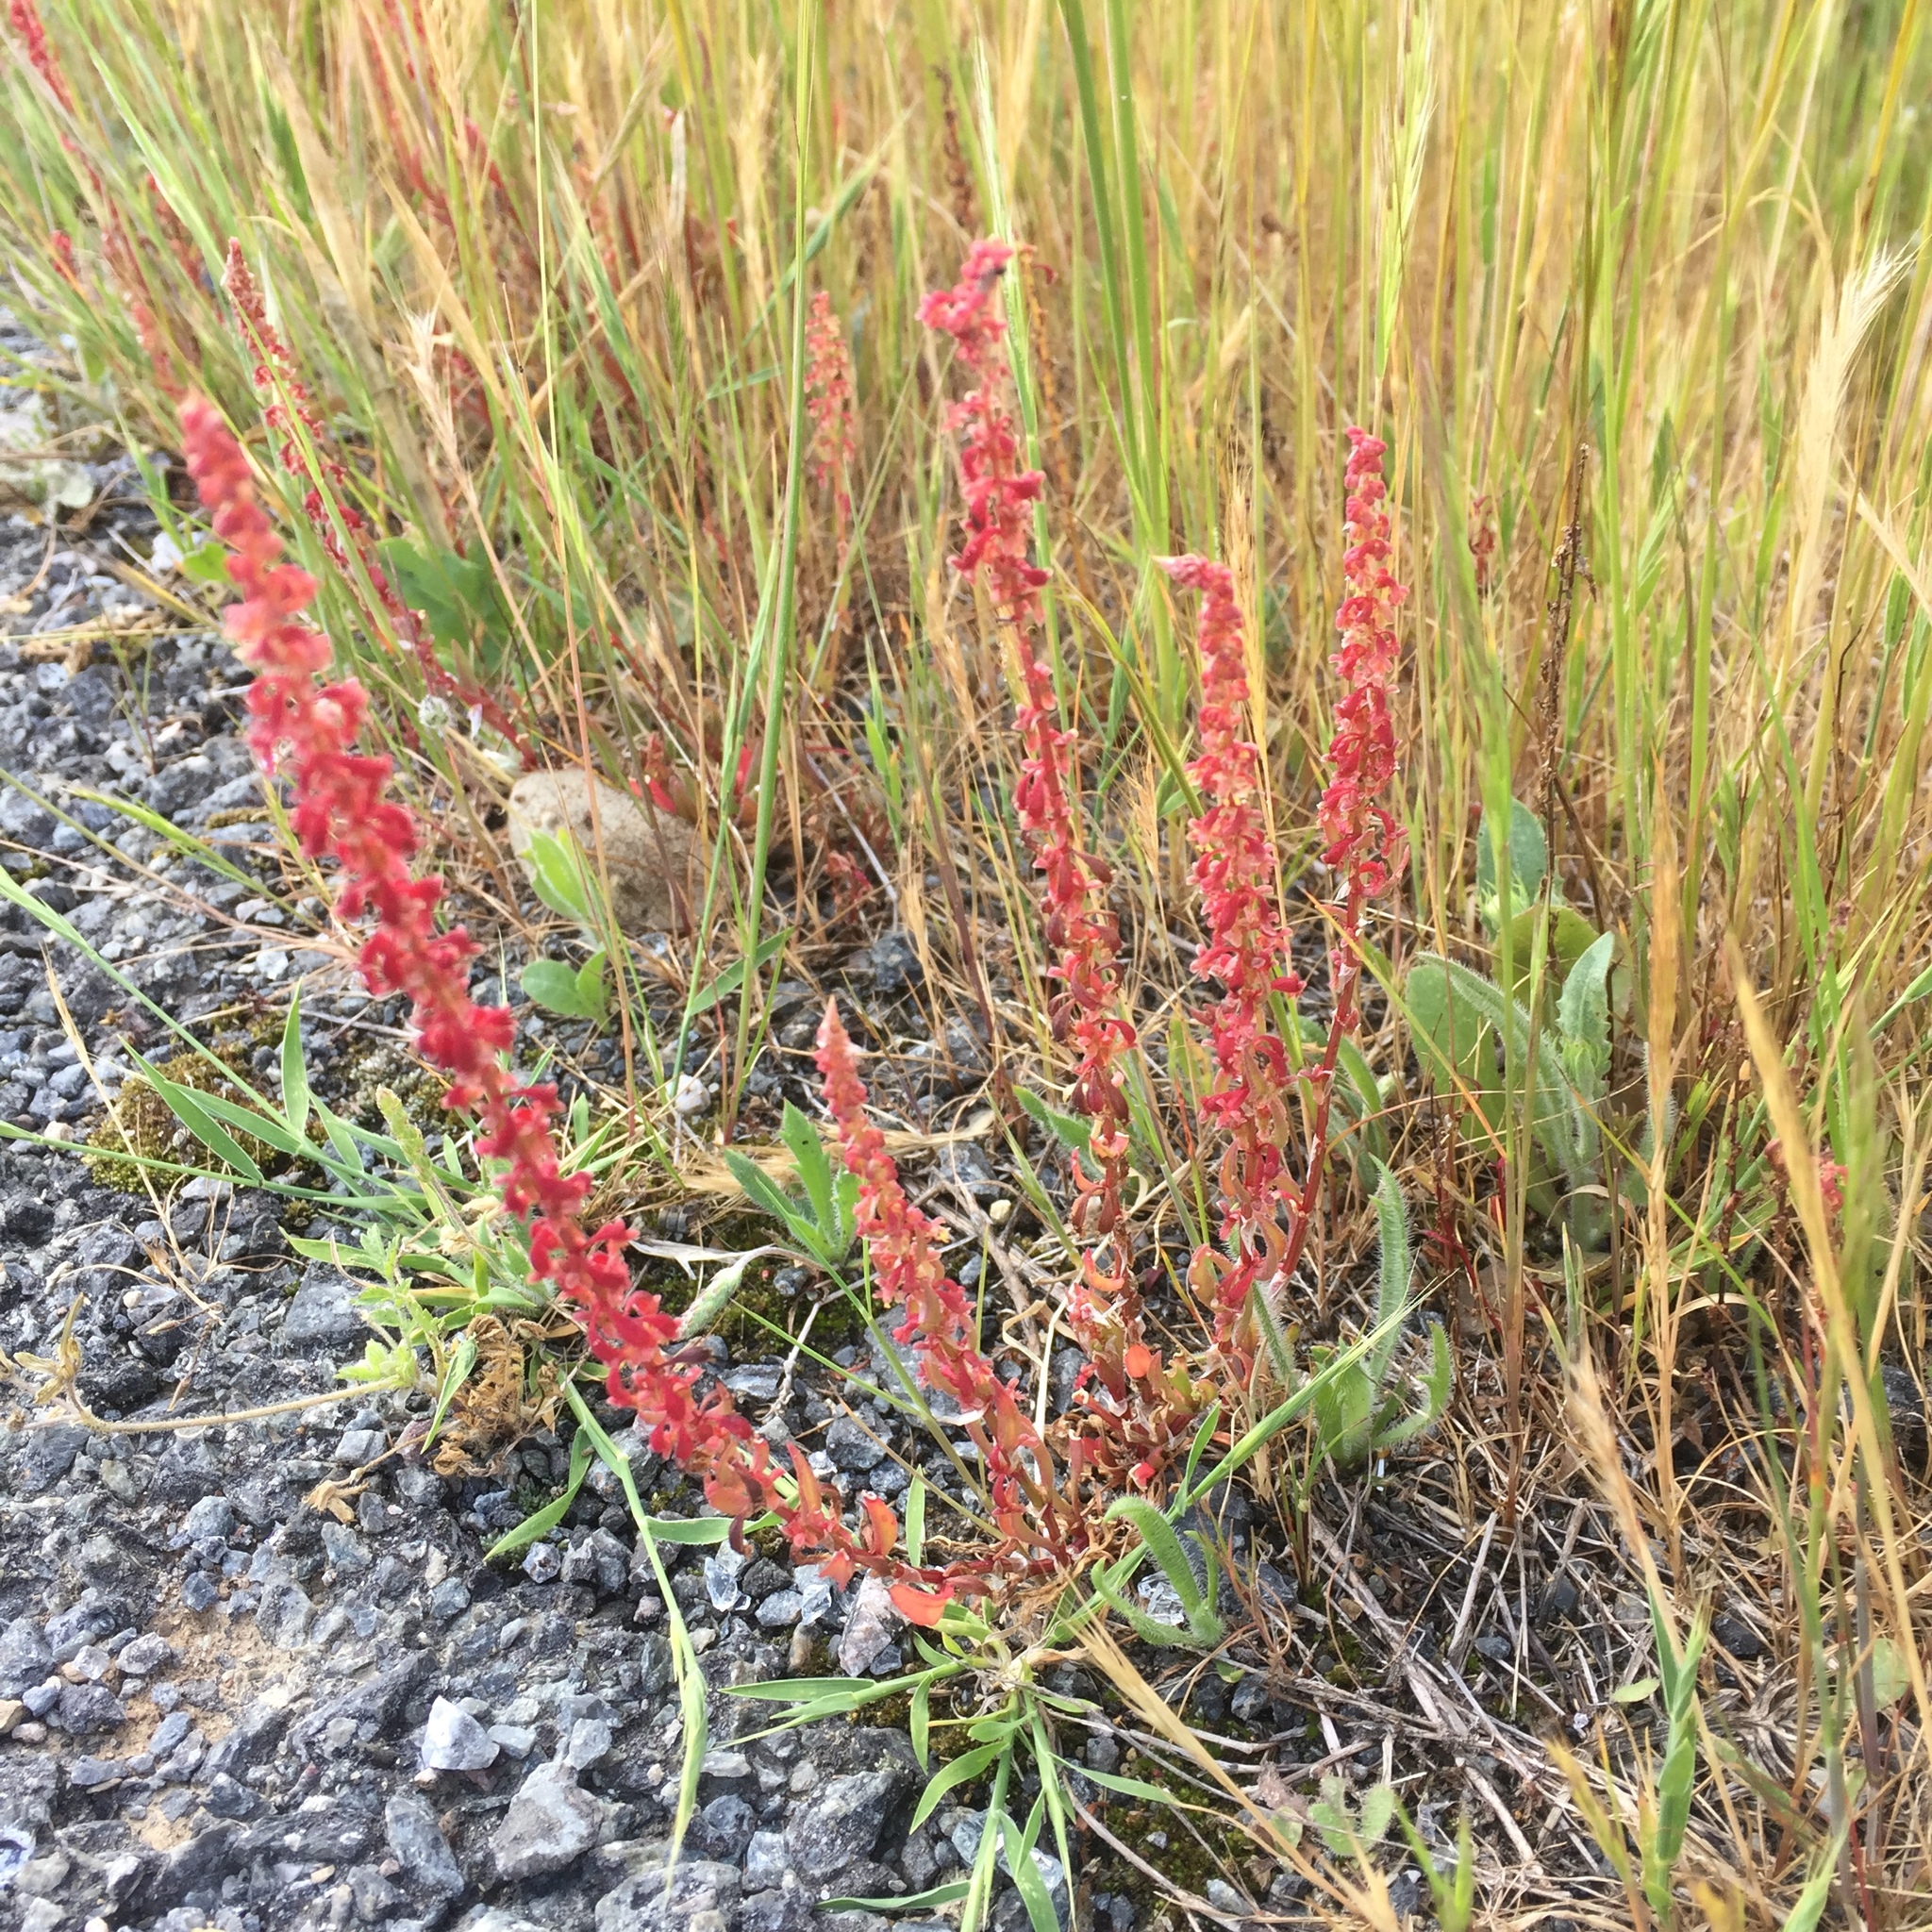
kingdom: Plantae
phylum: Tracheophyta
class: Magnoliopsida
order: Caryophyllales
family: Polygonaceae
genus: Rumex
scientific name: Rumex bucephalophorus
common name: Red dock
